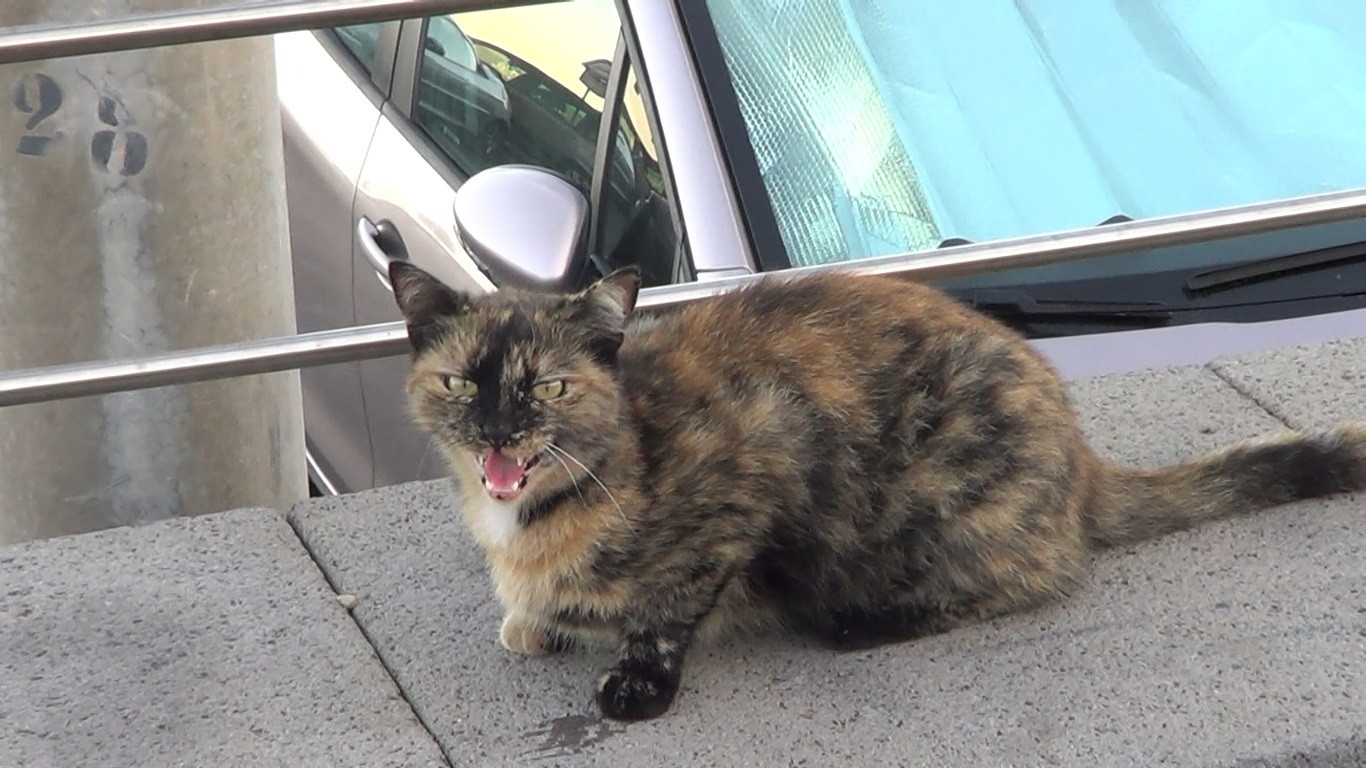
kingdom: Animalia
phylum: Chordata
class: Mammalia
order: Carnivora
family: Felidae
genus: Felis
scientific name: Felis catus
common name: Domestic cat
